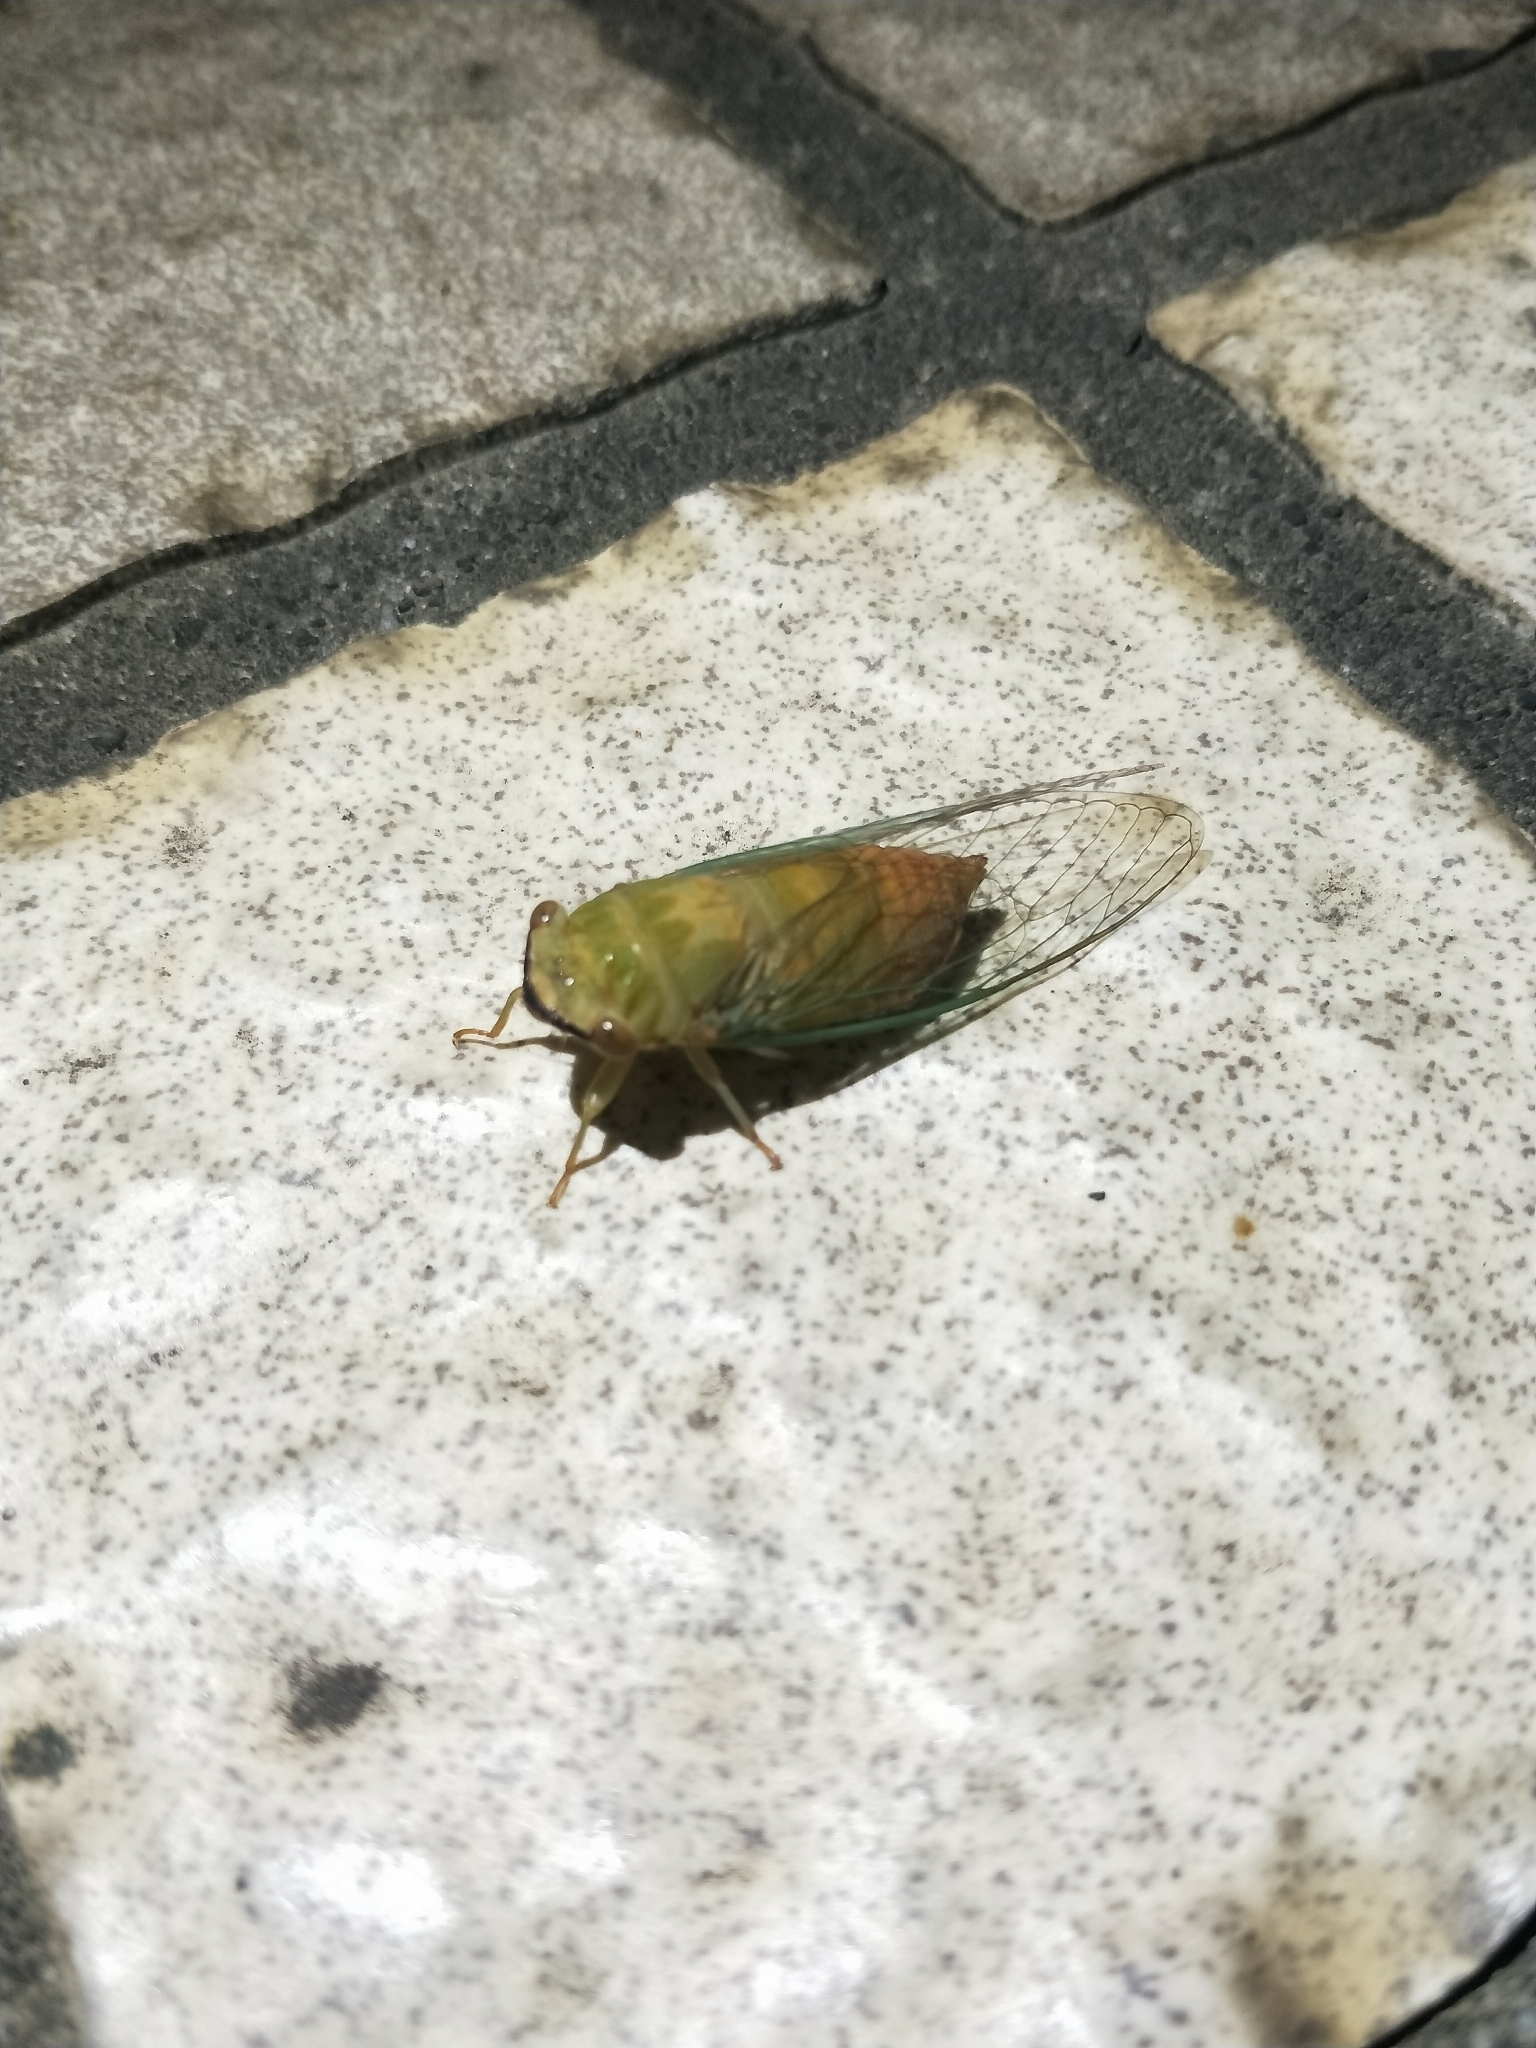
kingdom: Animalia
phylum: Arthropoda
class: Insecta
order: Hemiptera
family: Cicadidae
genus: Chremistica
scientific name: Chremistica ochracea
